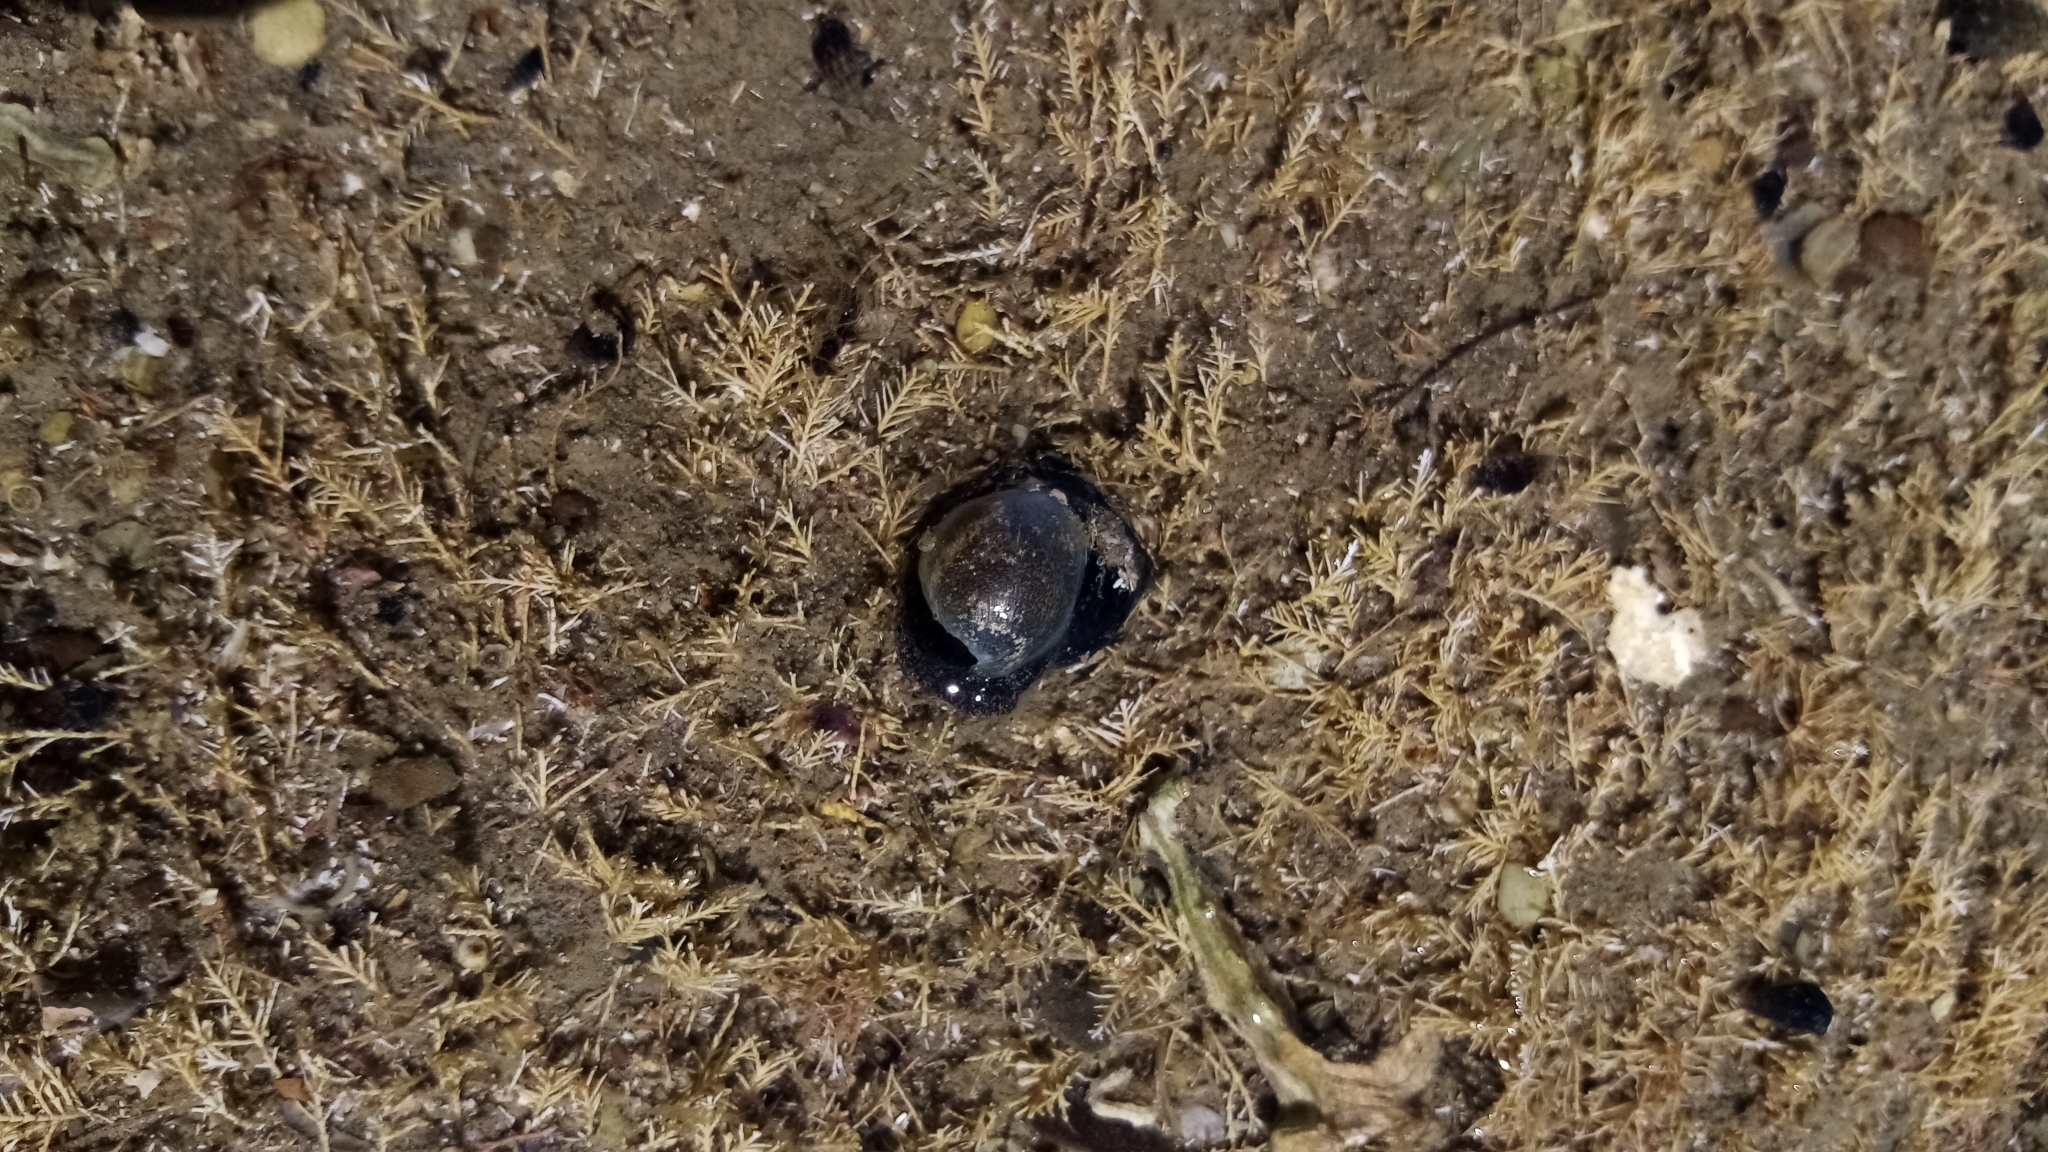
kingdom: Animalia
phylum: Mollusca
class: Gastropoda
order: Cephalaspidea
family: Haminoeidae
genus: Papawera
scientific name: Papawera zelandiae
